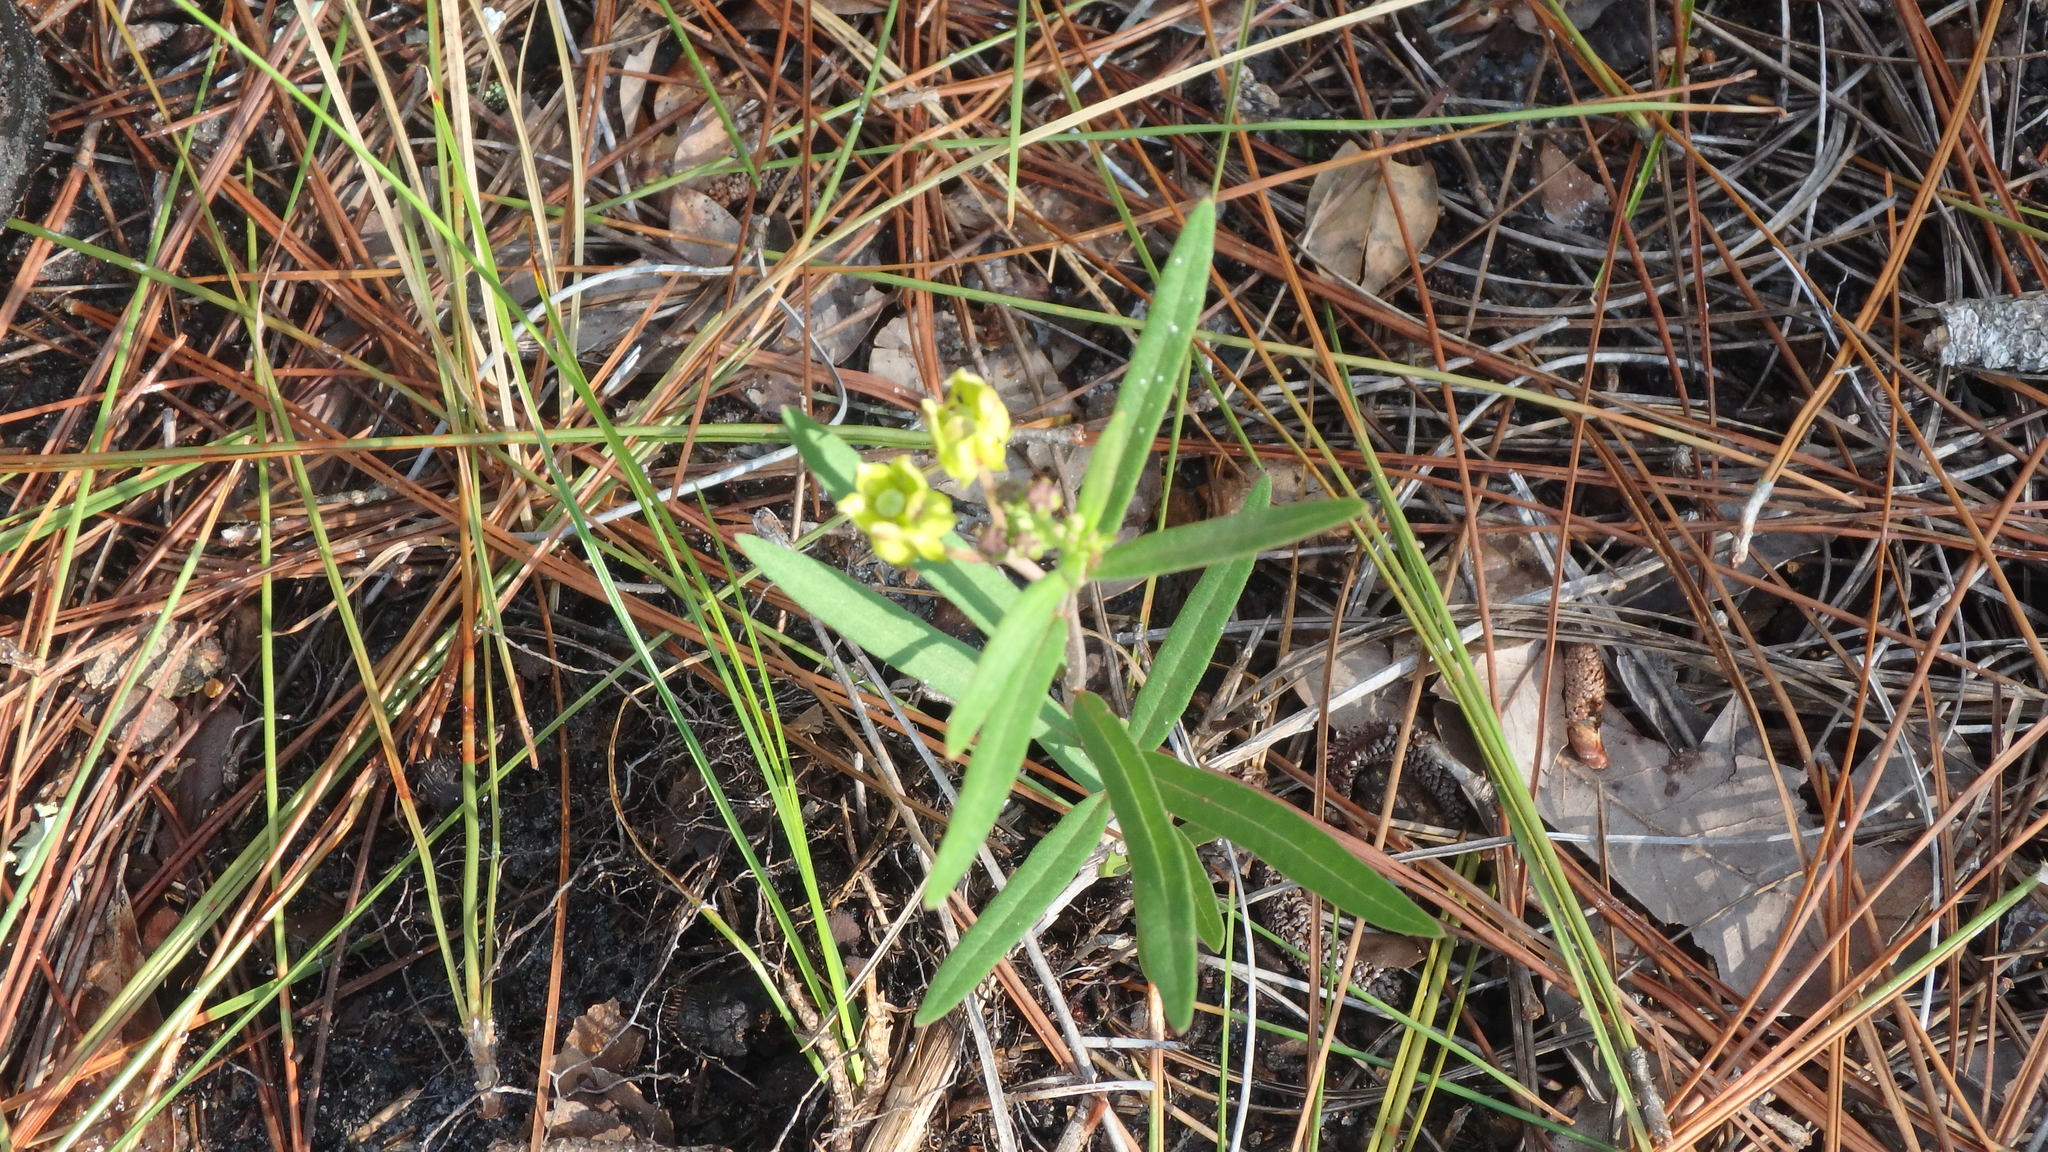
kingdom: Plantae
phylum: Tracheophyta
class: Magnoliopsida
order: Gentianales
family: Apocynaceae
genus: Asclepias
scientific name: Asclepias pedicellata
